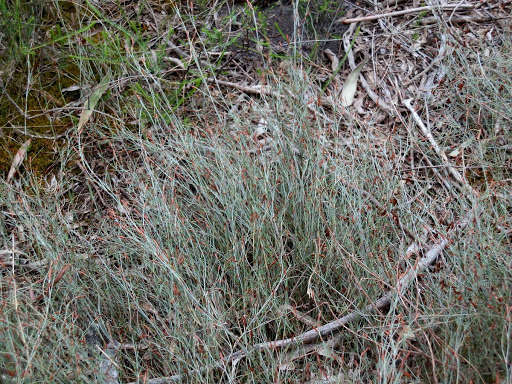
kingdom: Plantae
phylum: Tracheophyta
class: Liliopsida
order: Poales
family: Restionaceae
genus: Hypolaena
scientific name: Hypolaena fastigiata
